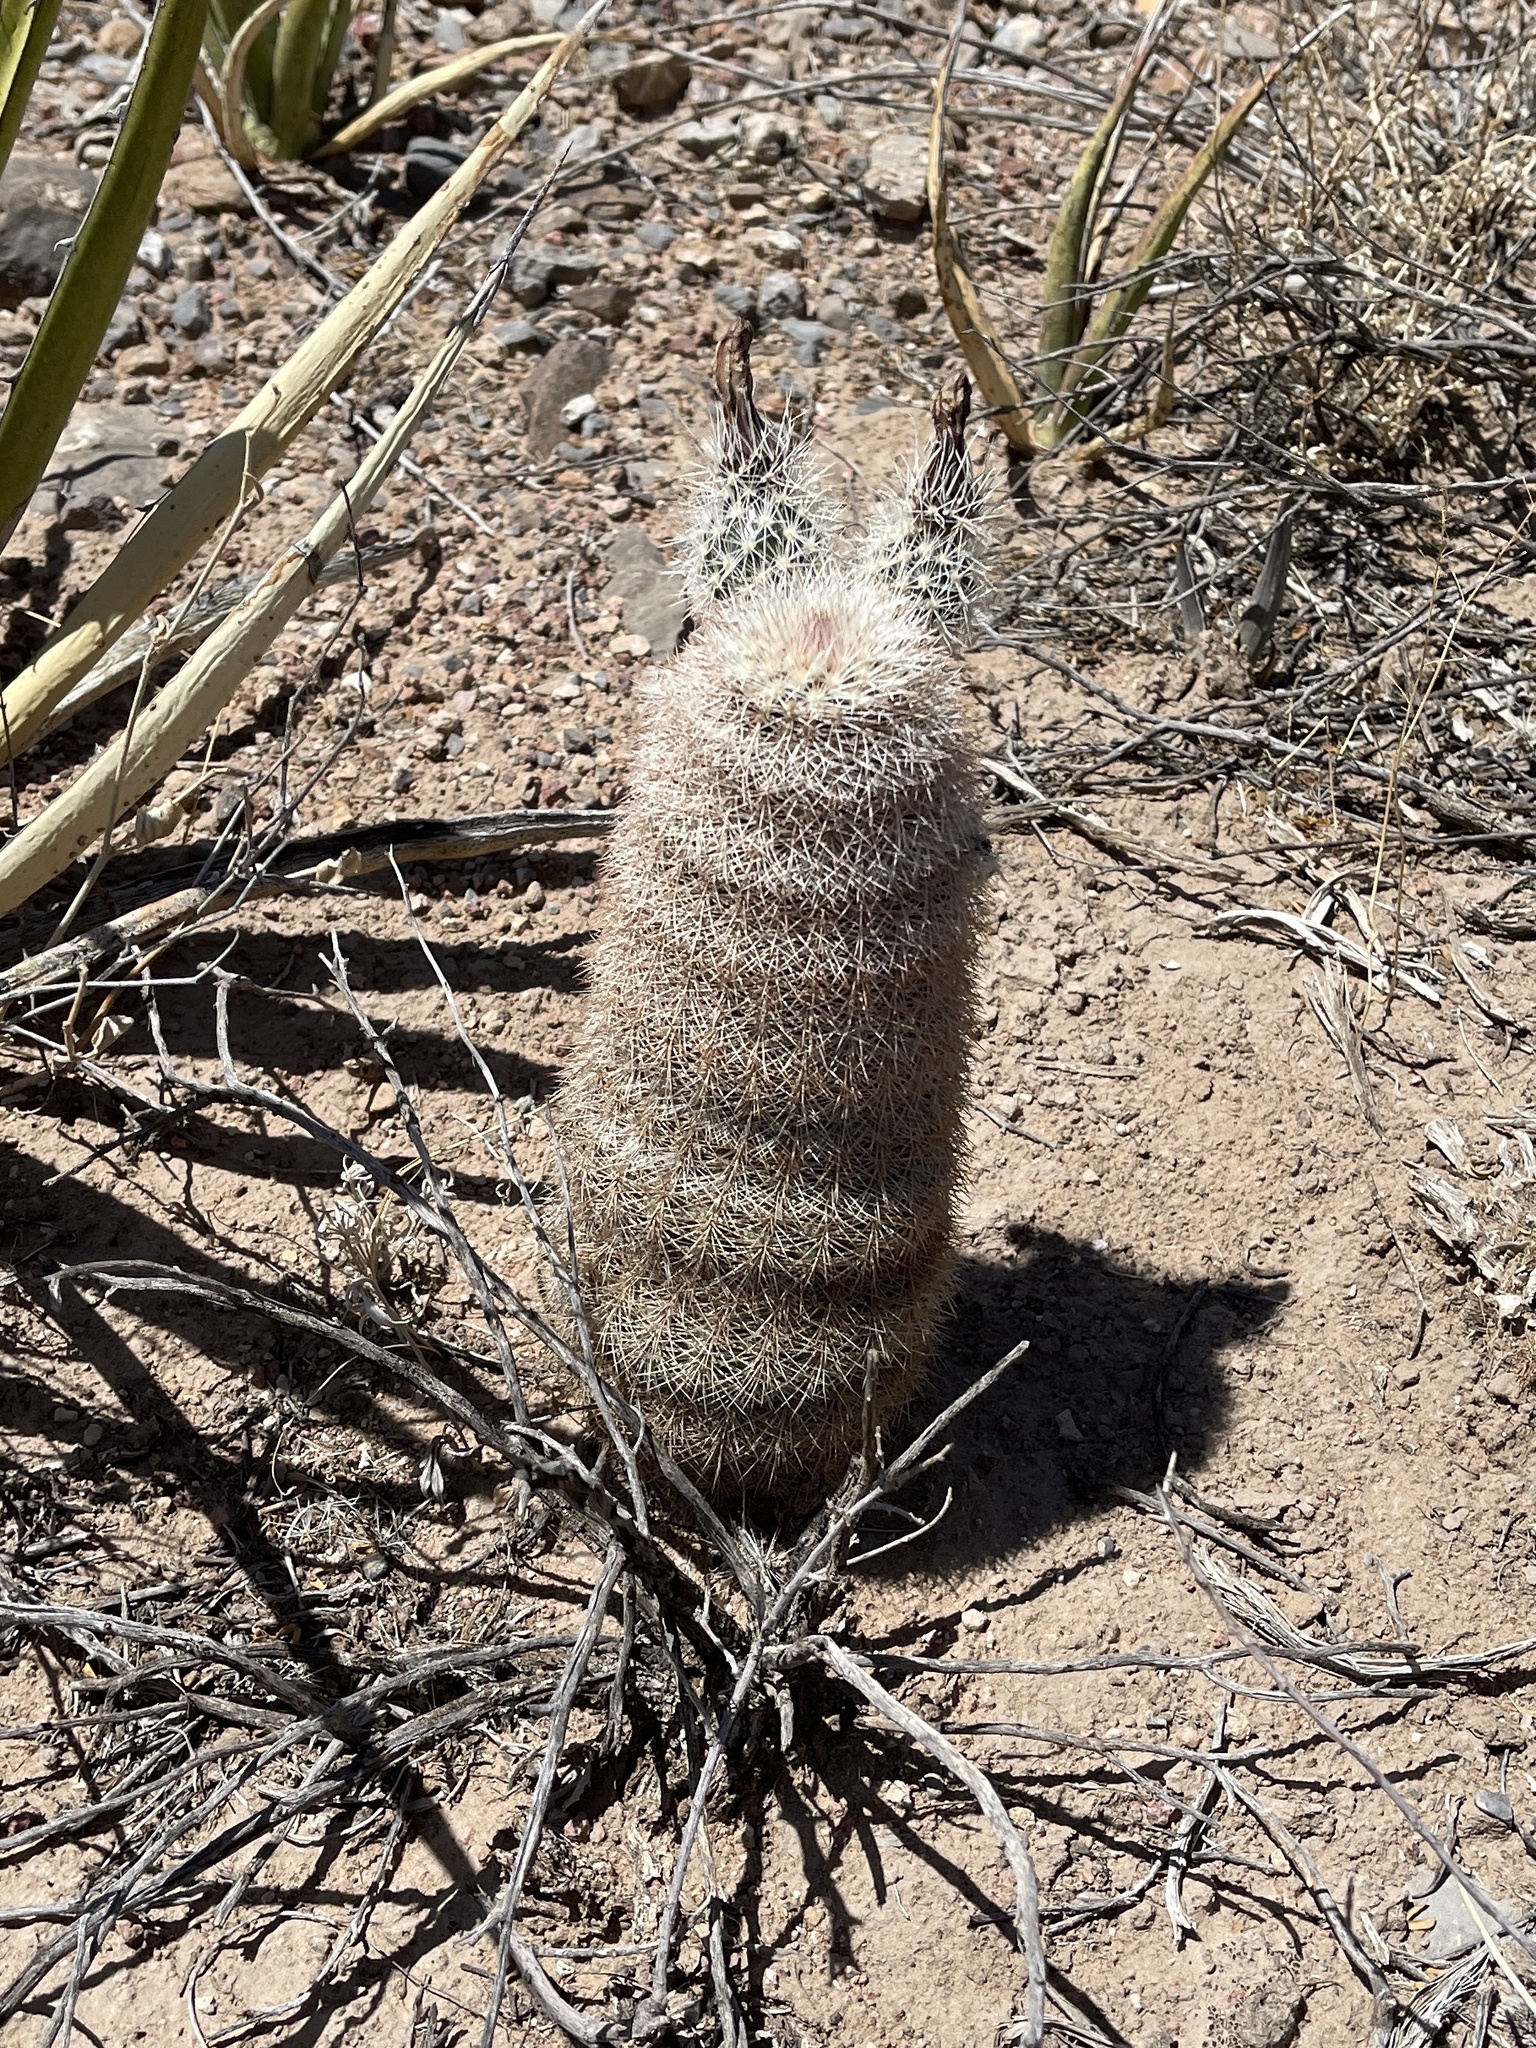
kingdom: Plantae
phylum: Tracheophyta
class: Magnoliopsida
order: Caryophyllales
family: Cactaceae
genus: Echinocereus
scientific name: Echinocereus dasyacanthus
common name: Spiny hedgehog cactus
